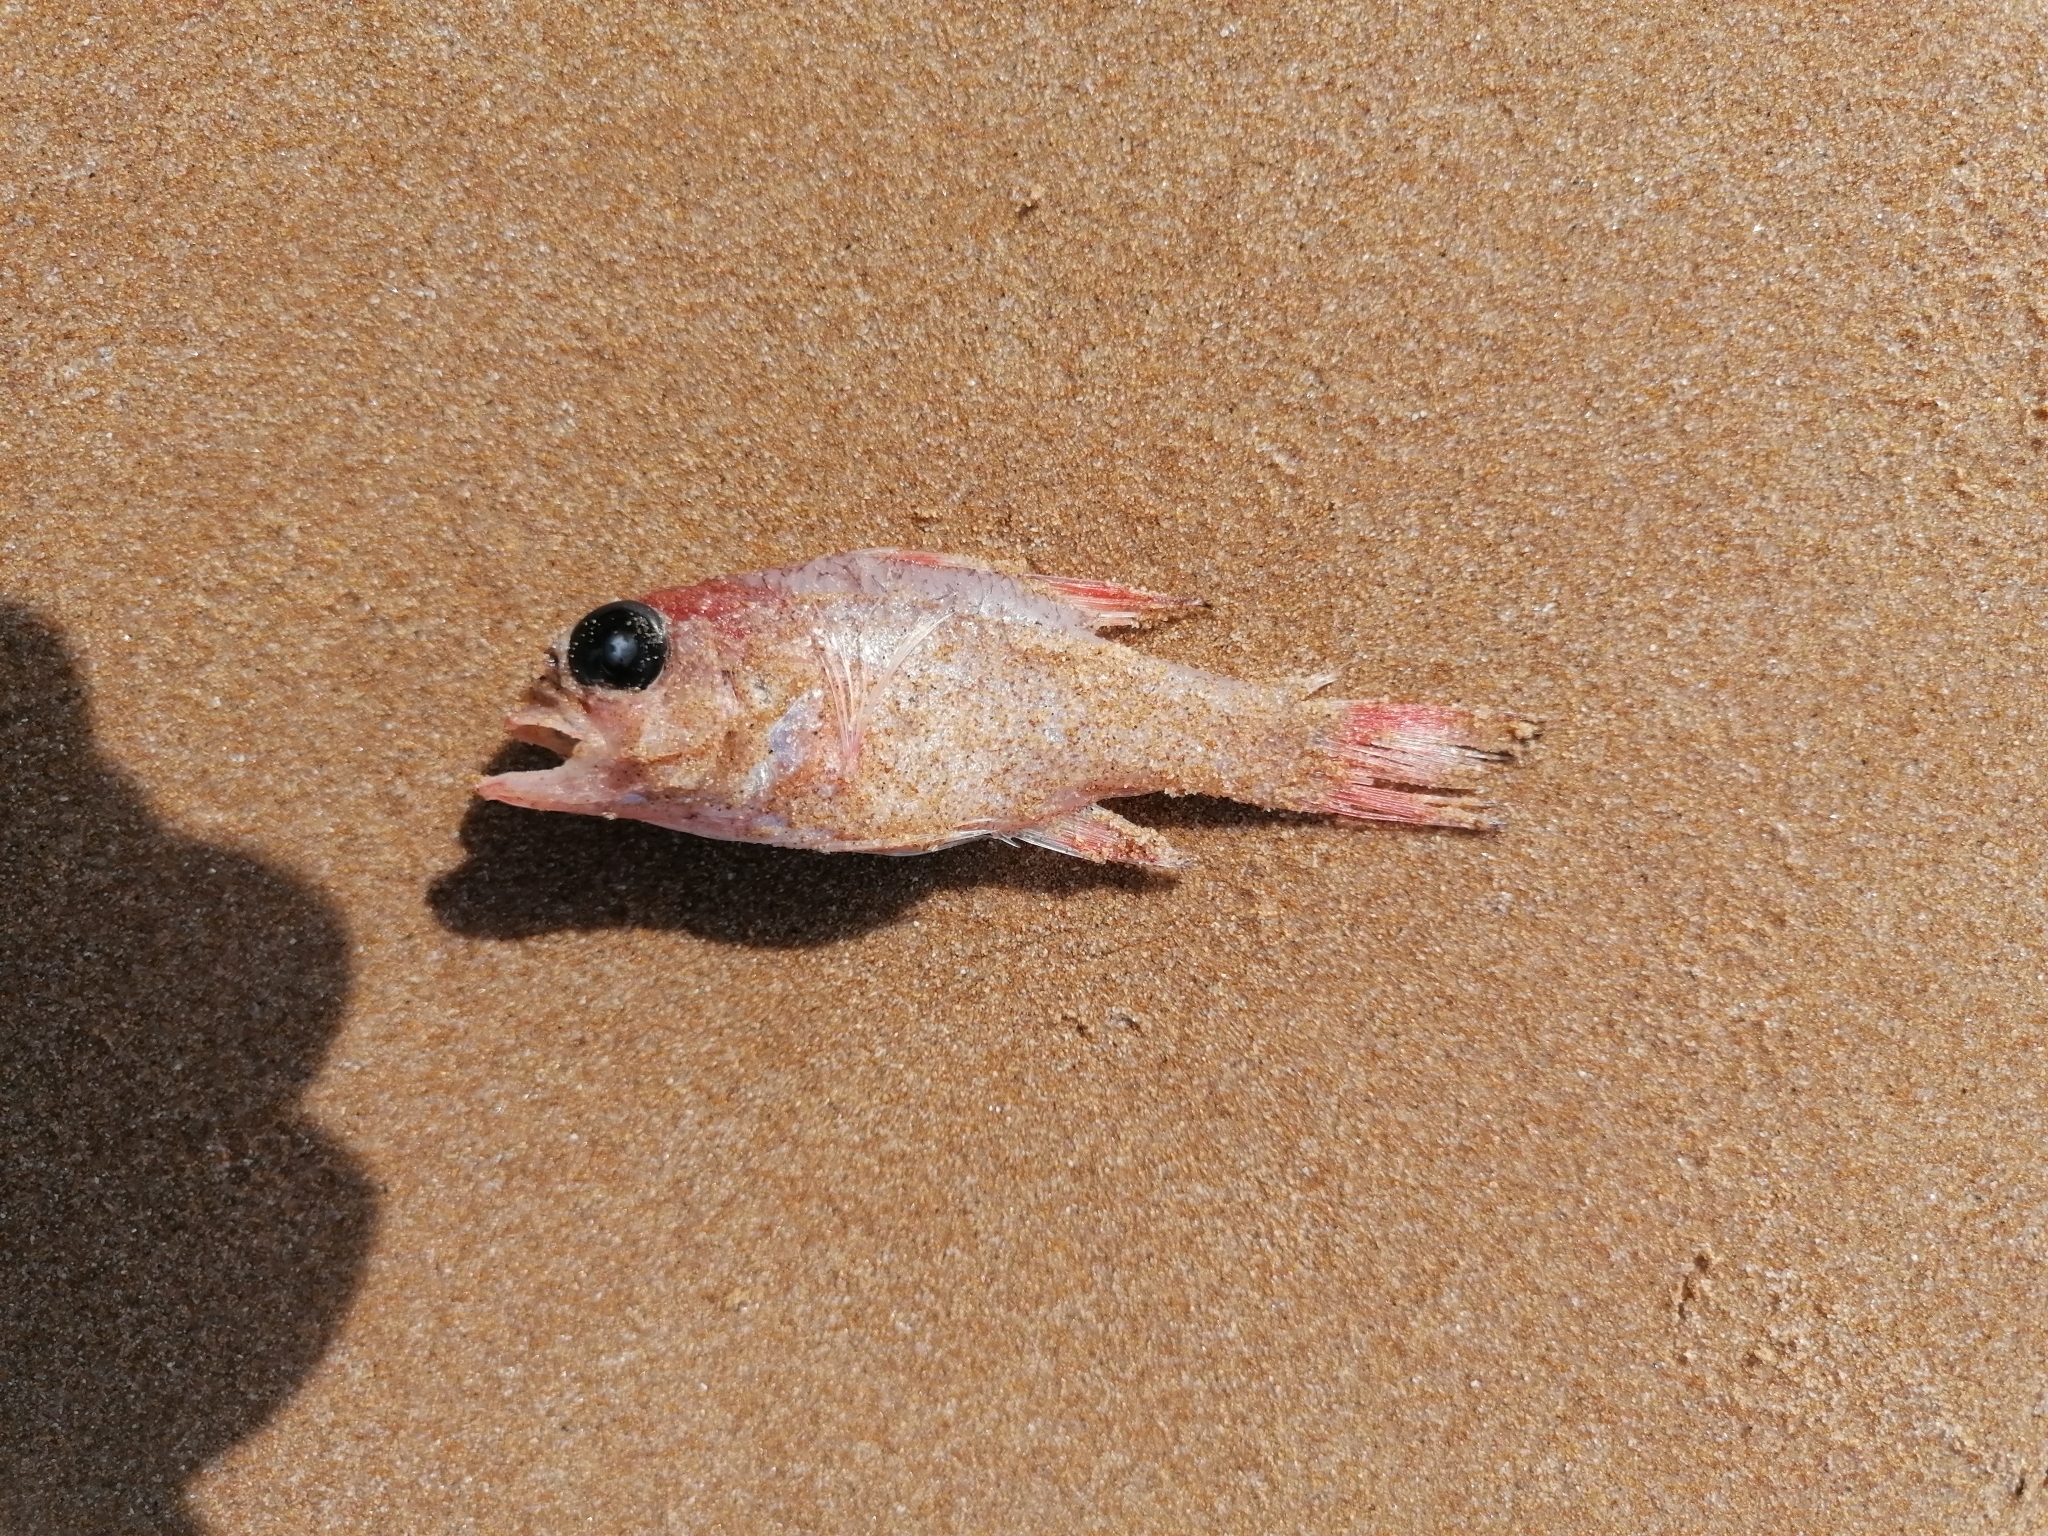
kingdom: Animalia
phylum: Chordata
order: Perciformes
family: Apogonidae
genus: Apogon
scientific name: Apogon imberbis
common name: Cardinal fish
